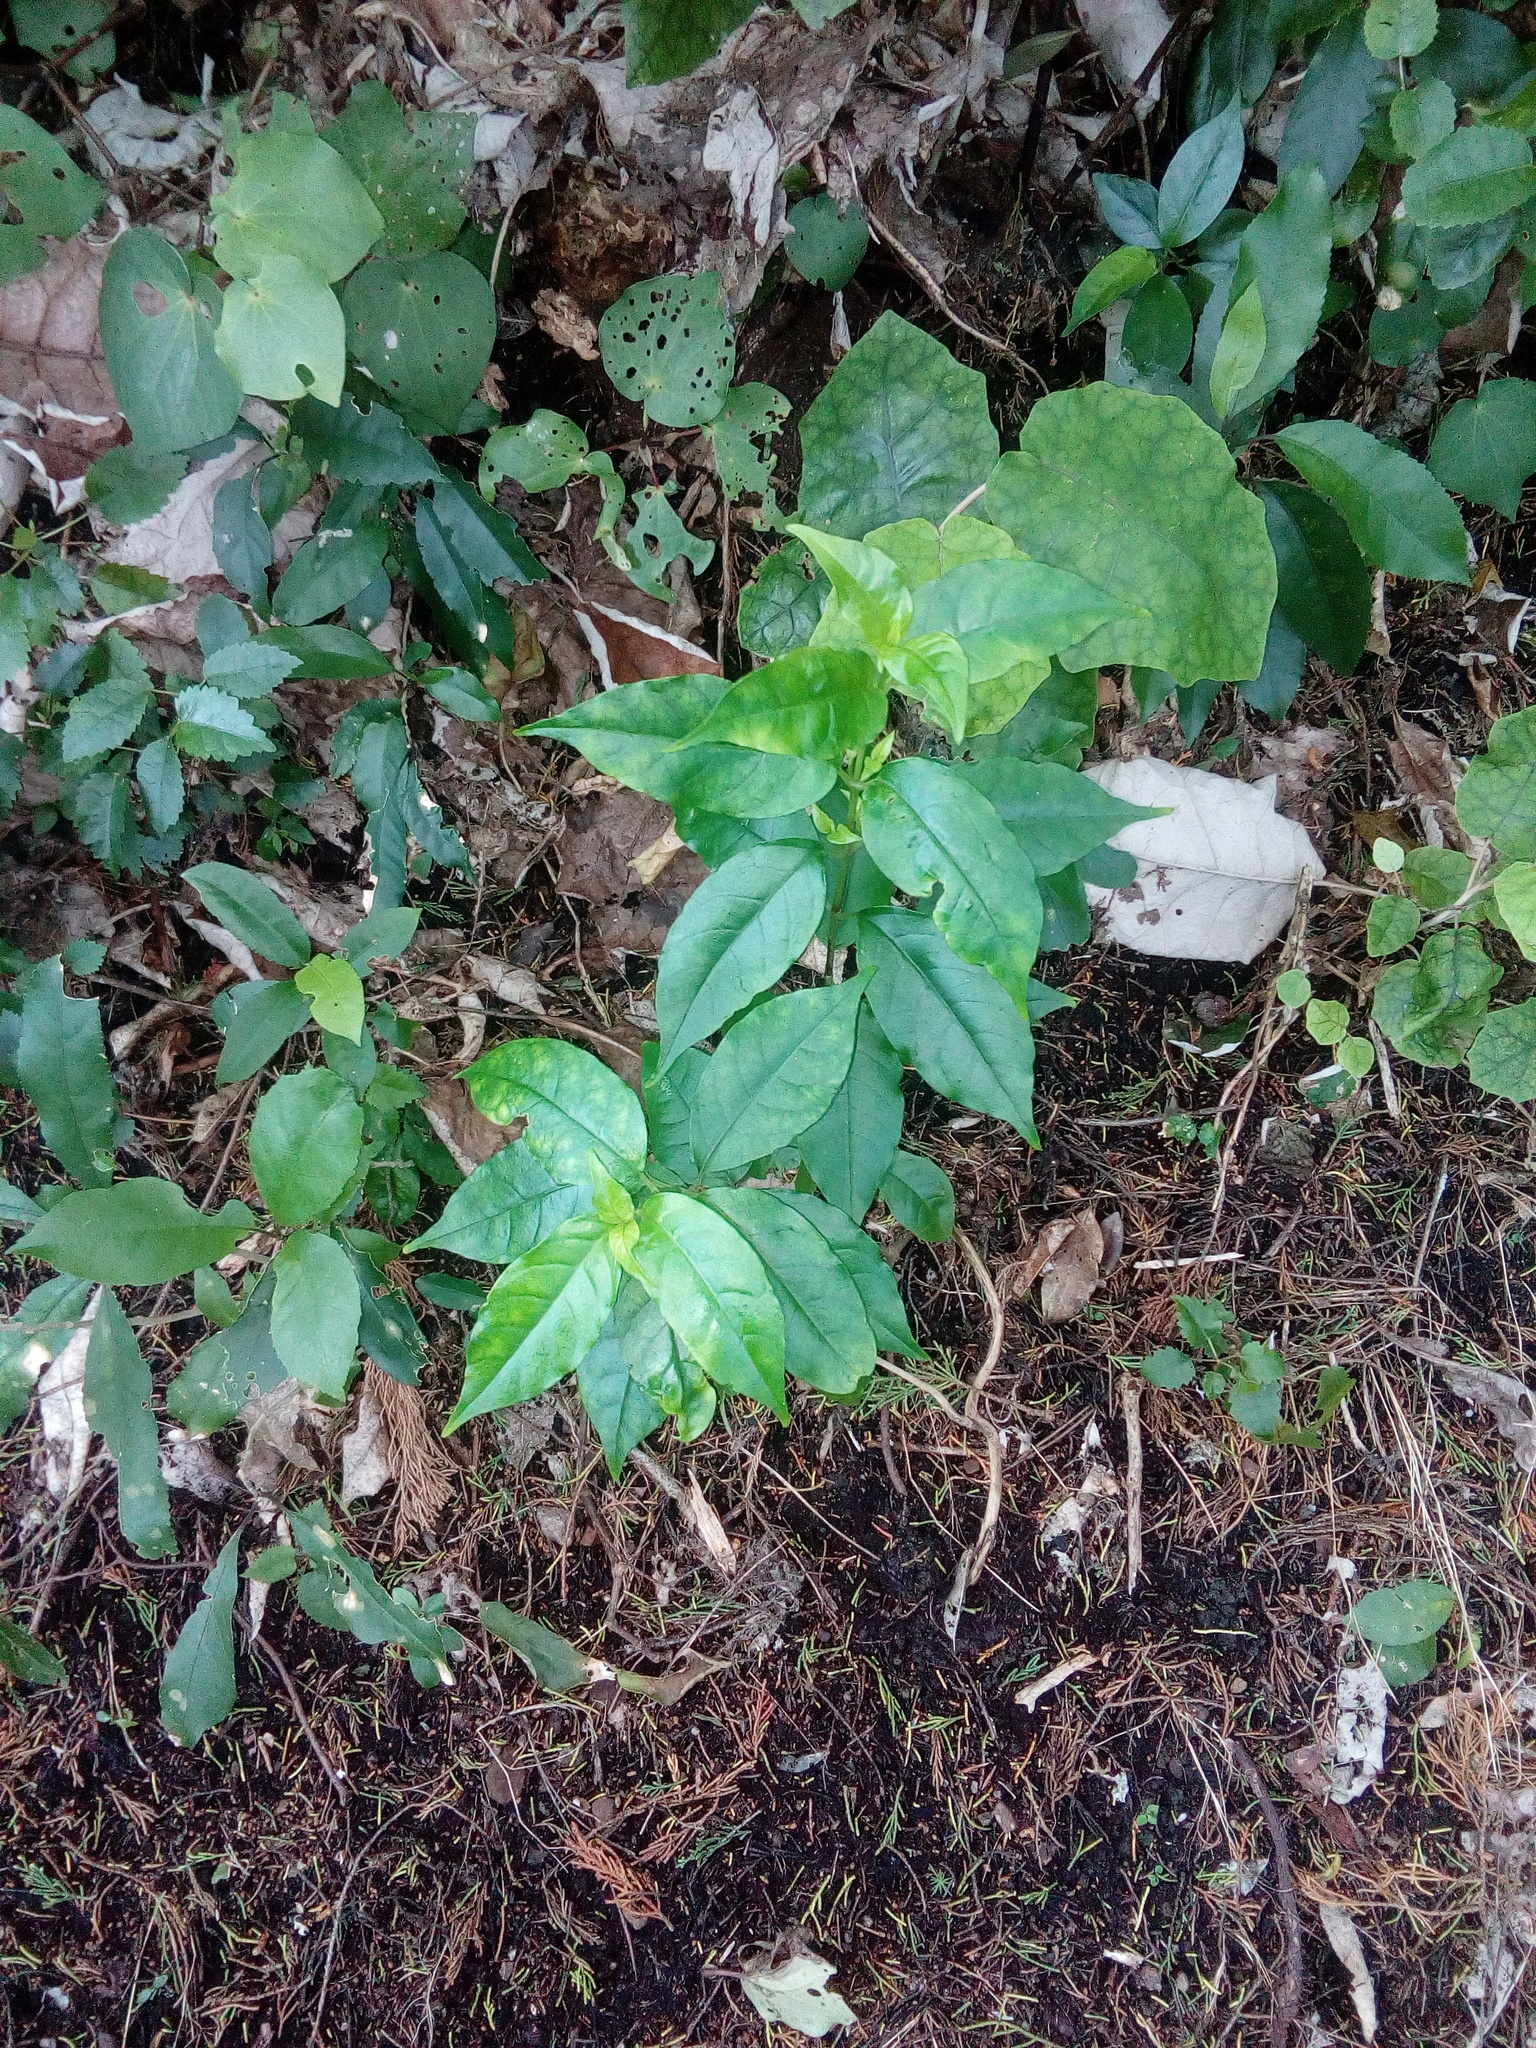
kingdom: Plantae
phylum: Tracheophyta
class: Magnoliopsida
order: Gentianales
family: Loganiaceae
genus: Geniostoma
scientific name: Geniostoma ligustrifolium
